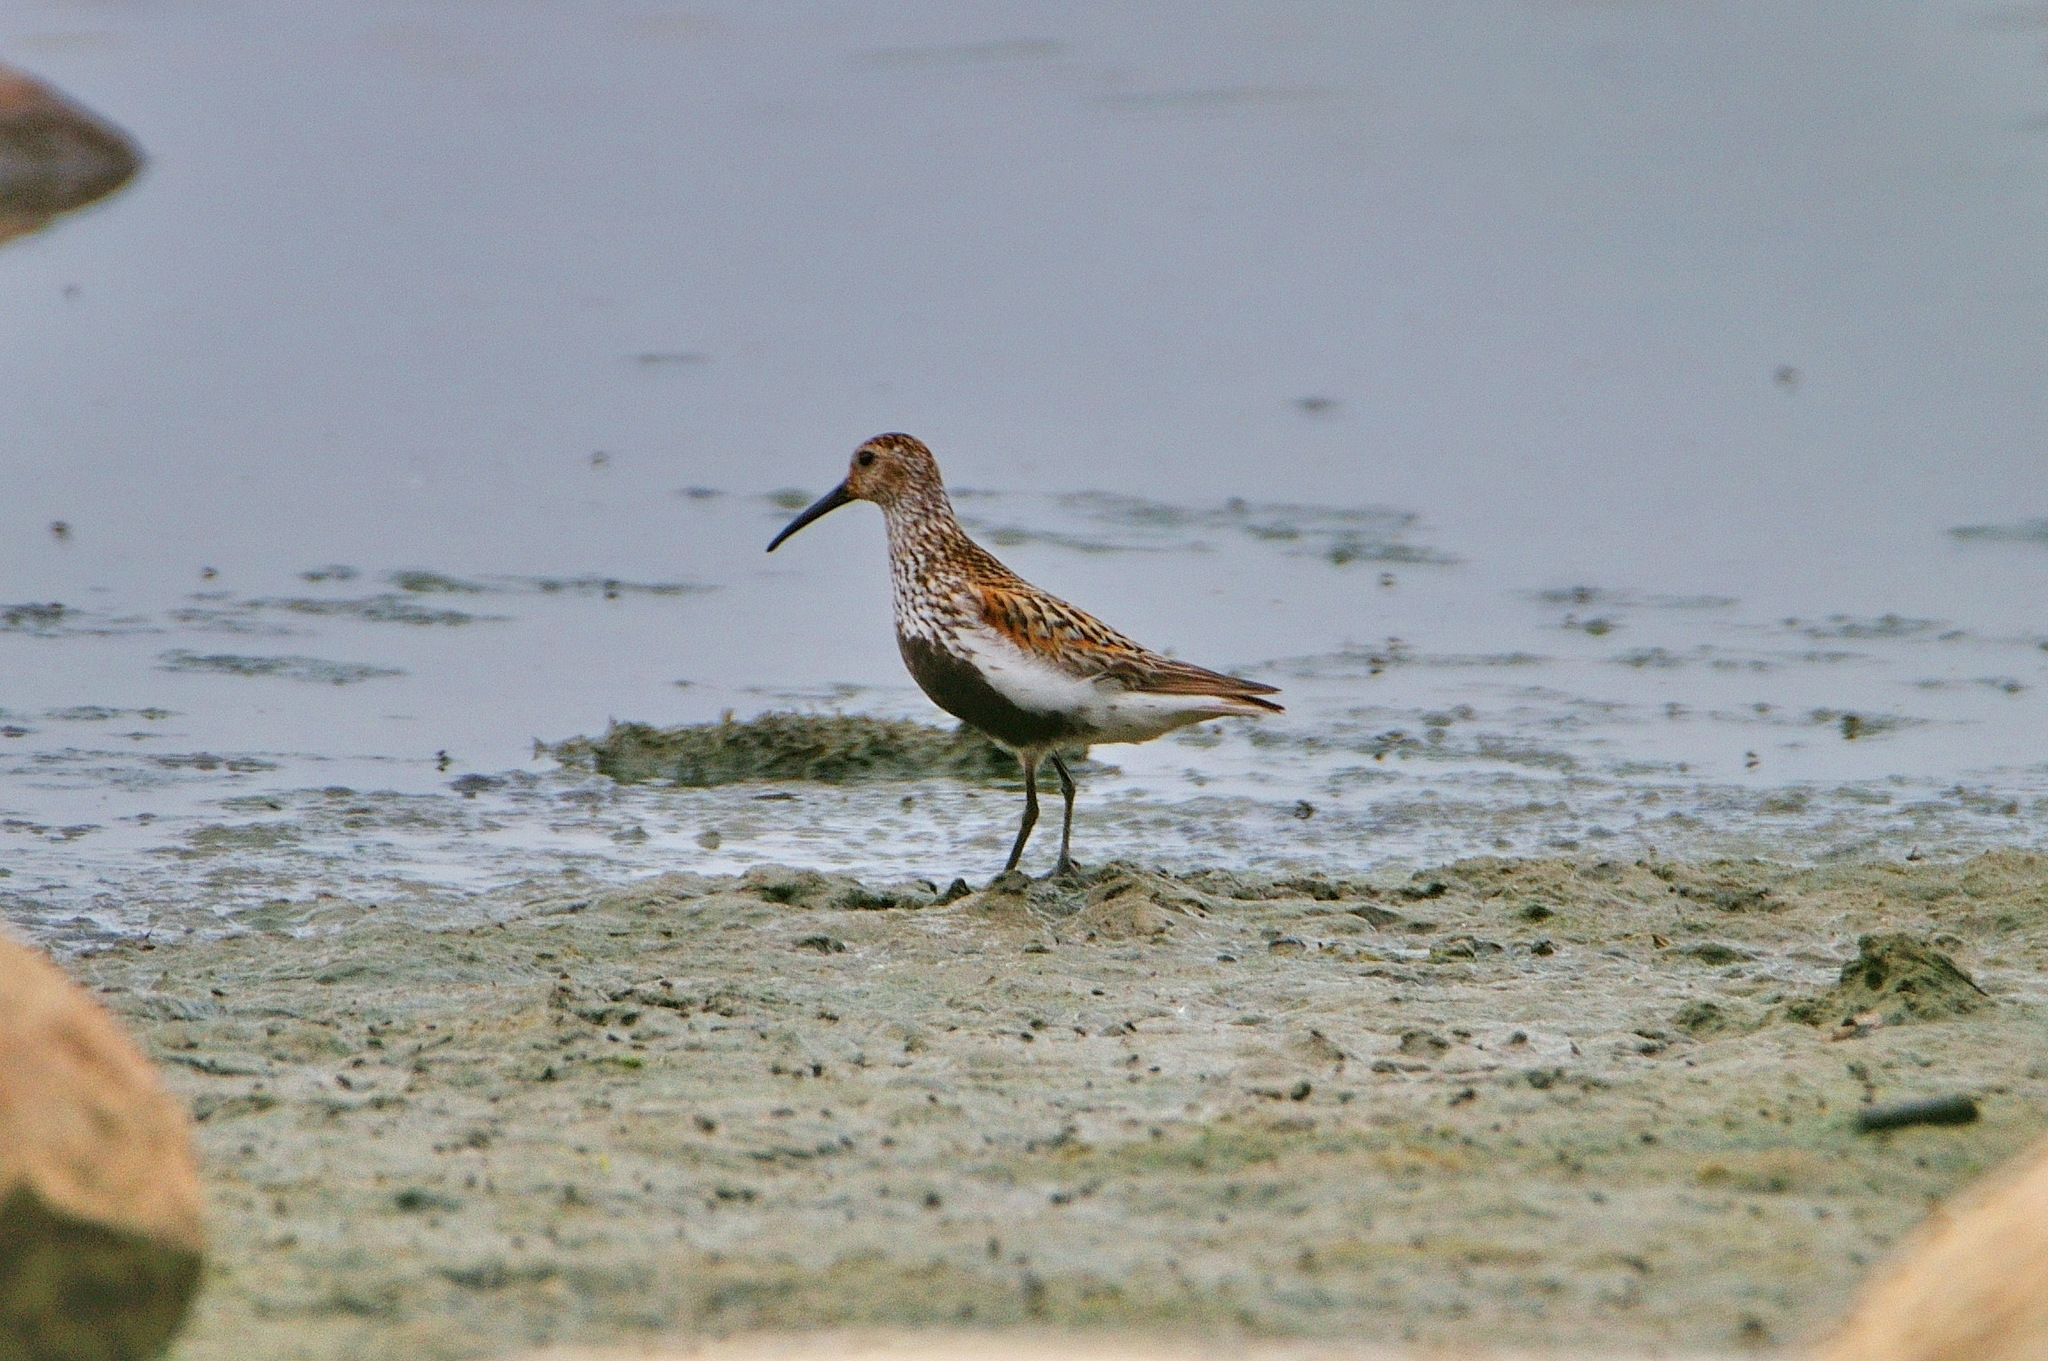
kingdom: Animalia
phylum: Chordata
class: Aves
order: Charadriiformes
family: Scolopacidae
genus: Calidris
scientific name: Calidris alpina
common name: Dunlin
